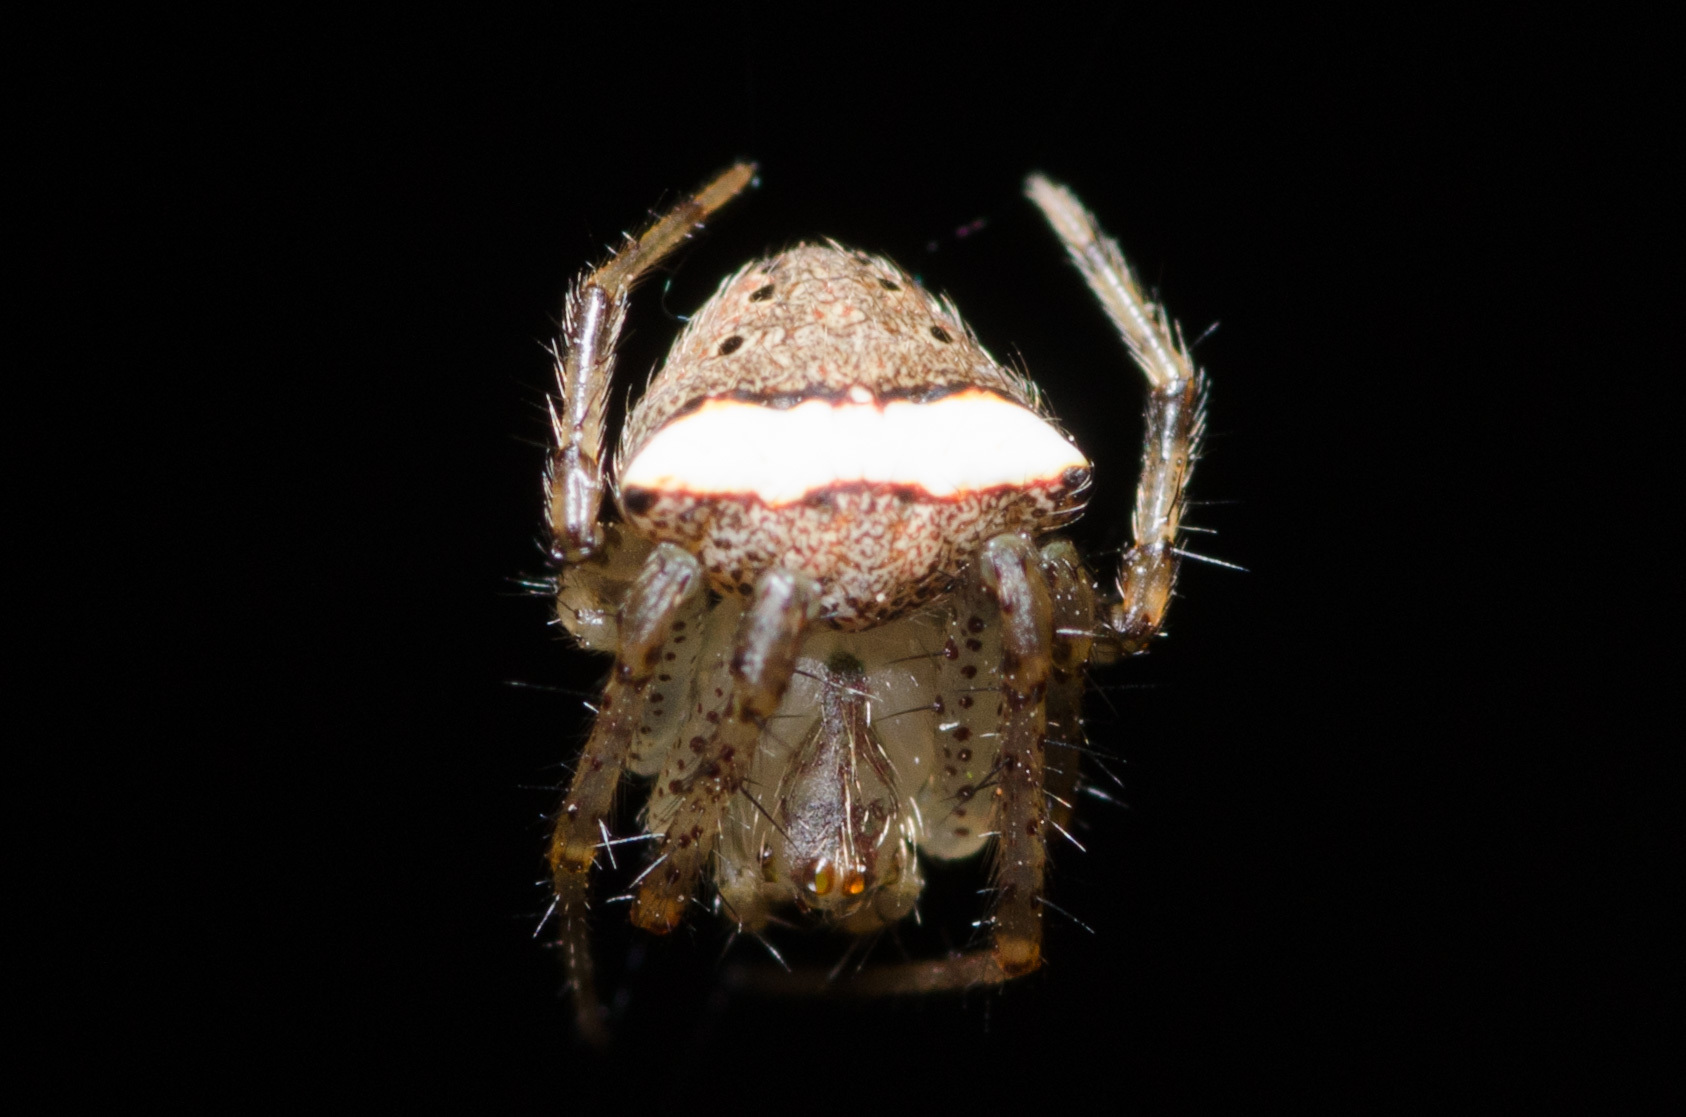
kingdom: Animalia
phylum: Arthropoda
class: Arachnida
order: Araneae
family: Araneidae
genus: Araneus
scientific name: Araneus miniatus
